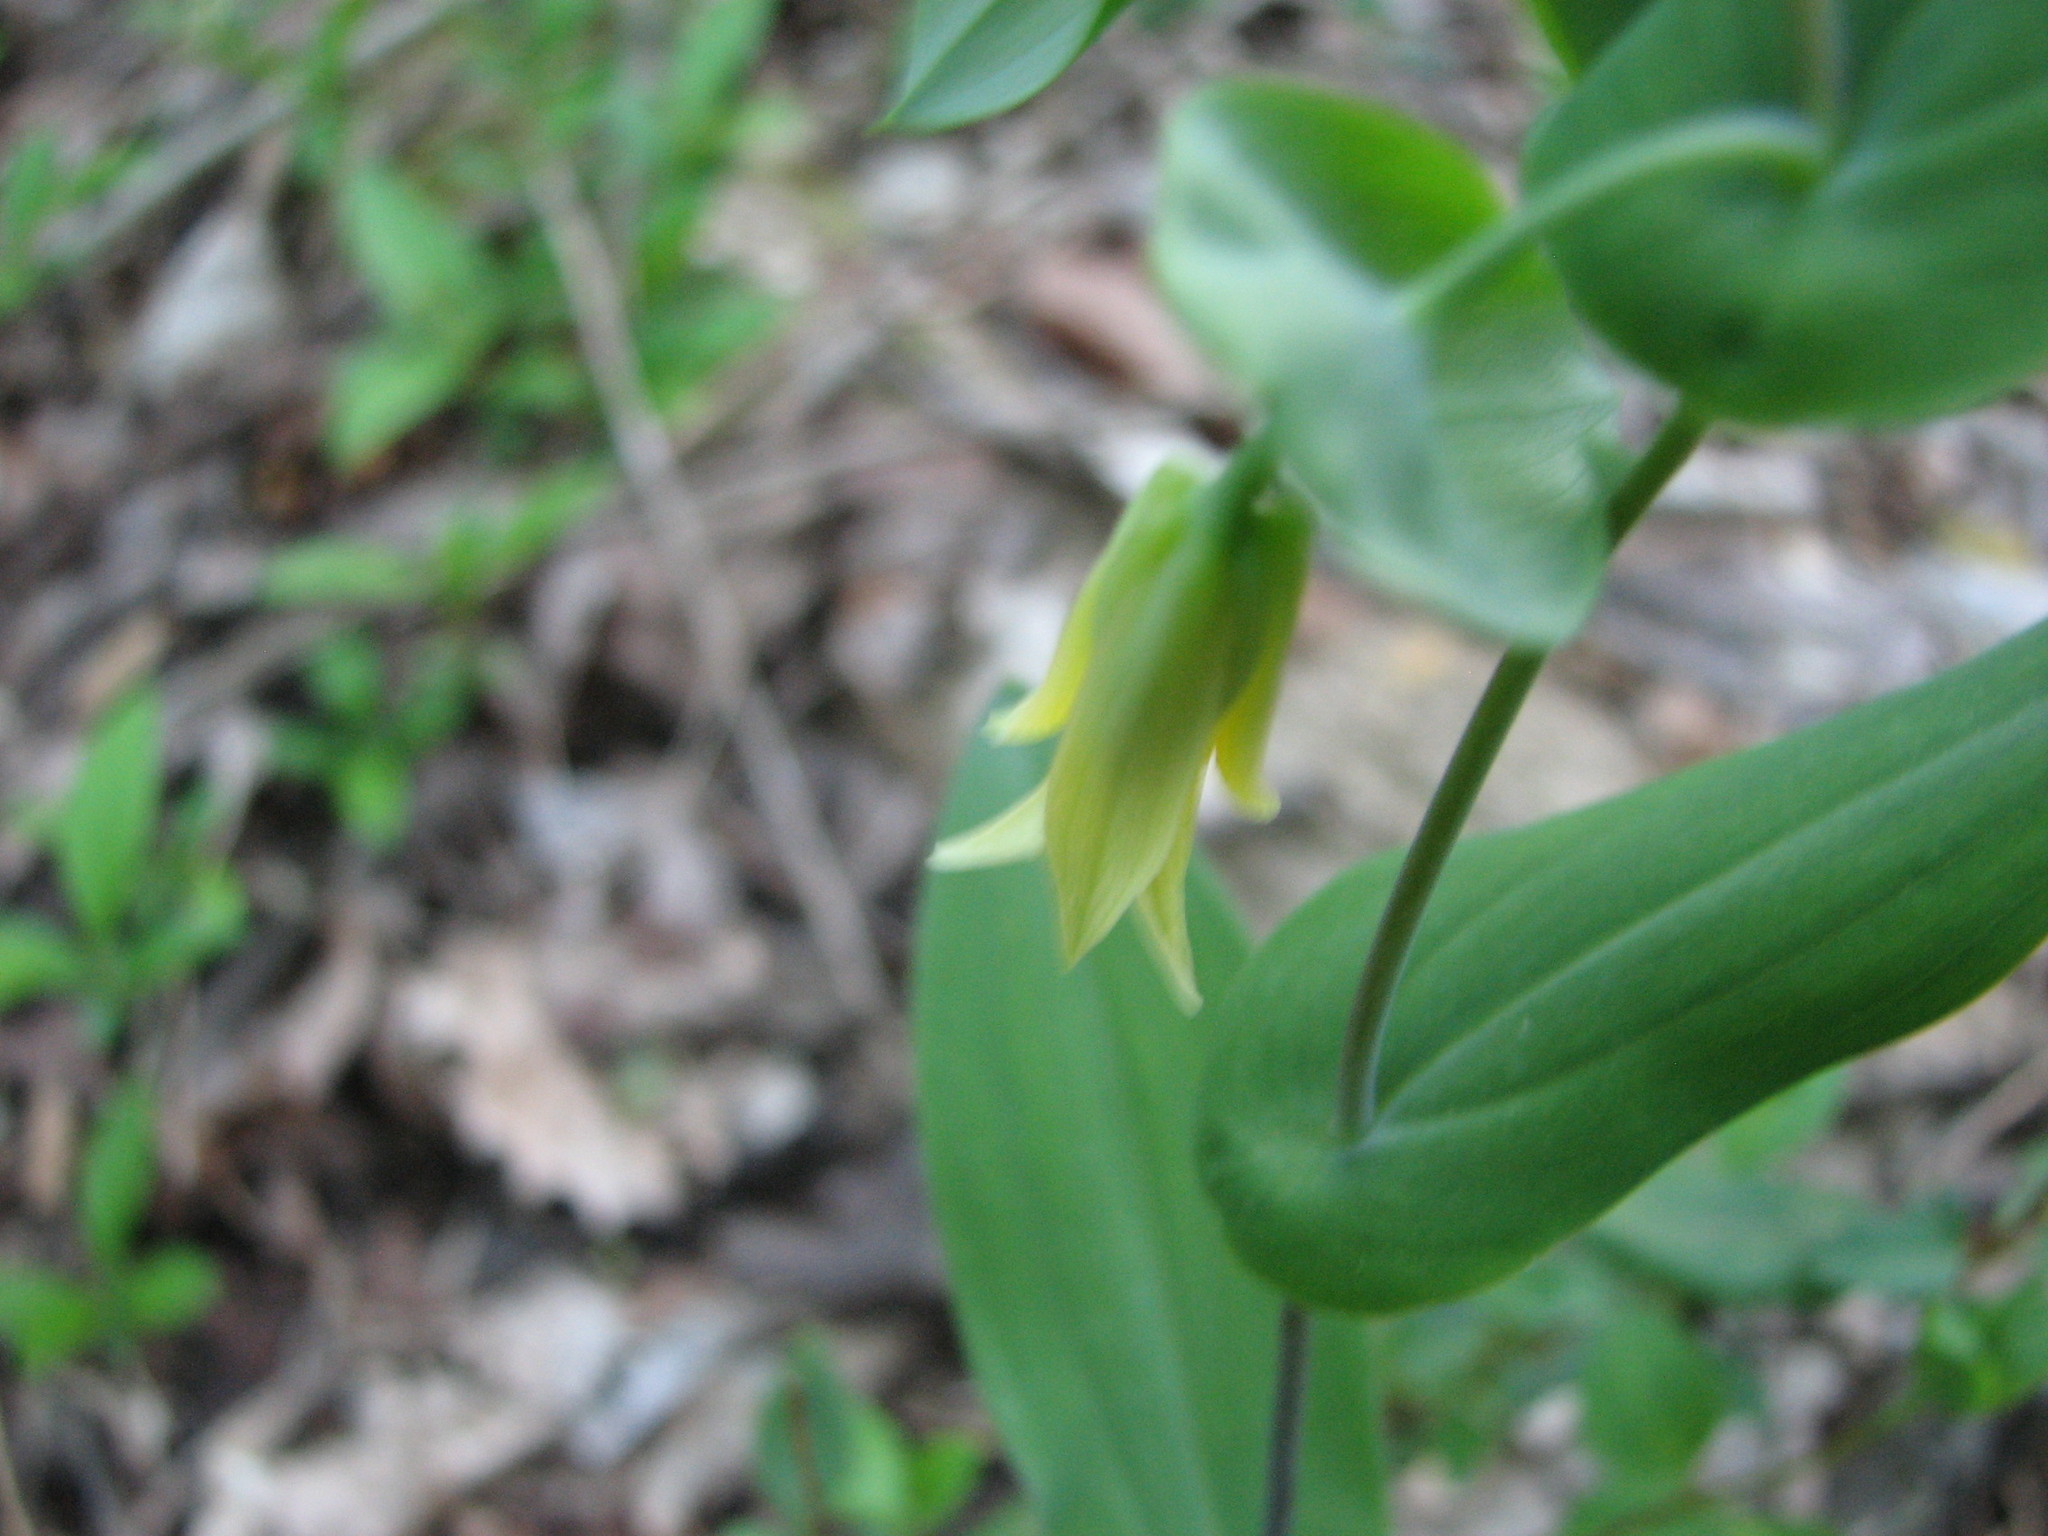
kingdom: Plantae
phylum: Tracheophyta
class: Liliopsida
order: Liliales
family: Colchicaceae
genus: Uvularia
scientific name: Uvularia perfoliata
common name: Perfoliate bellwort
